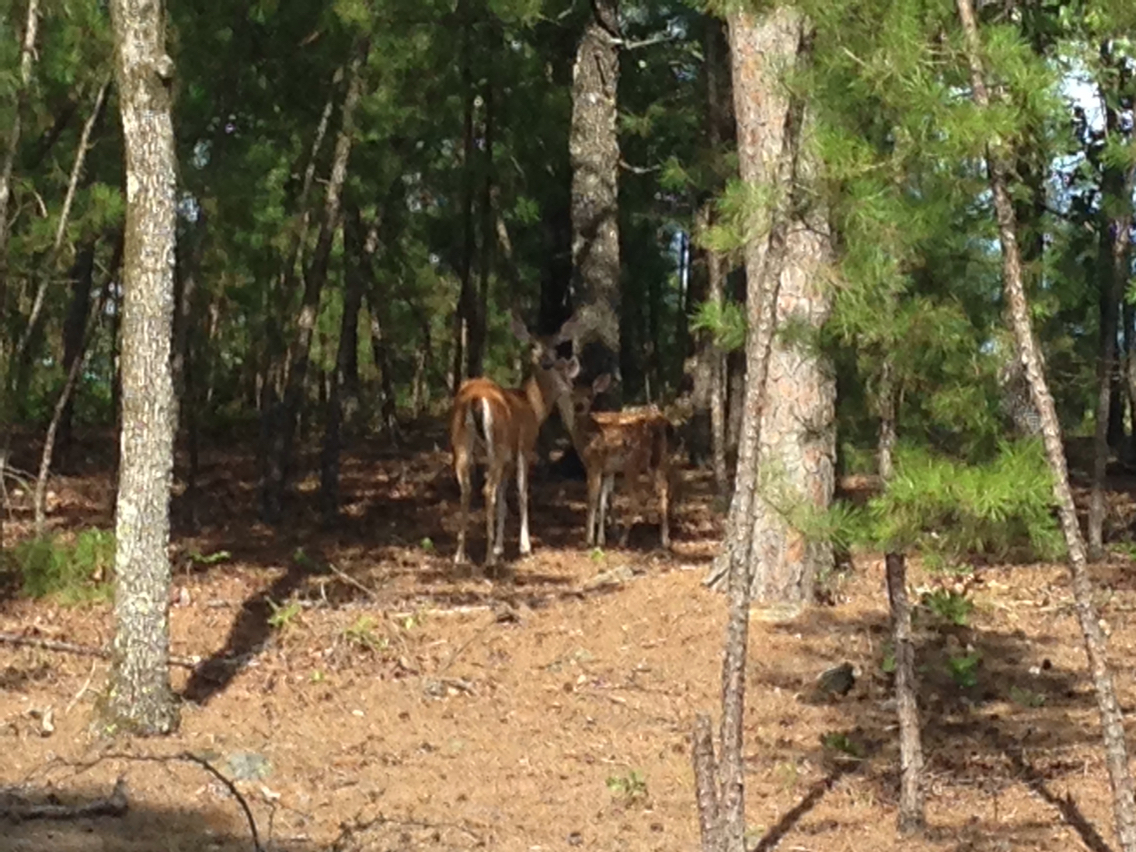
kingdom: Animalia
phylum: Chordata
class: Mammalia
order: Artiodactyla
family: Cervidae
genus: Odocoileus
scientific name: Odocoileus virginianus
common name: White-tailed deer
